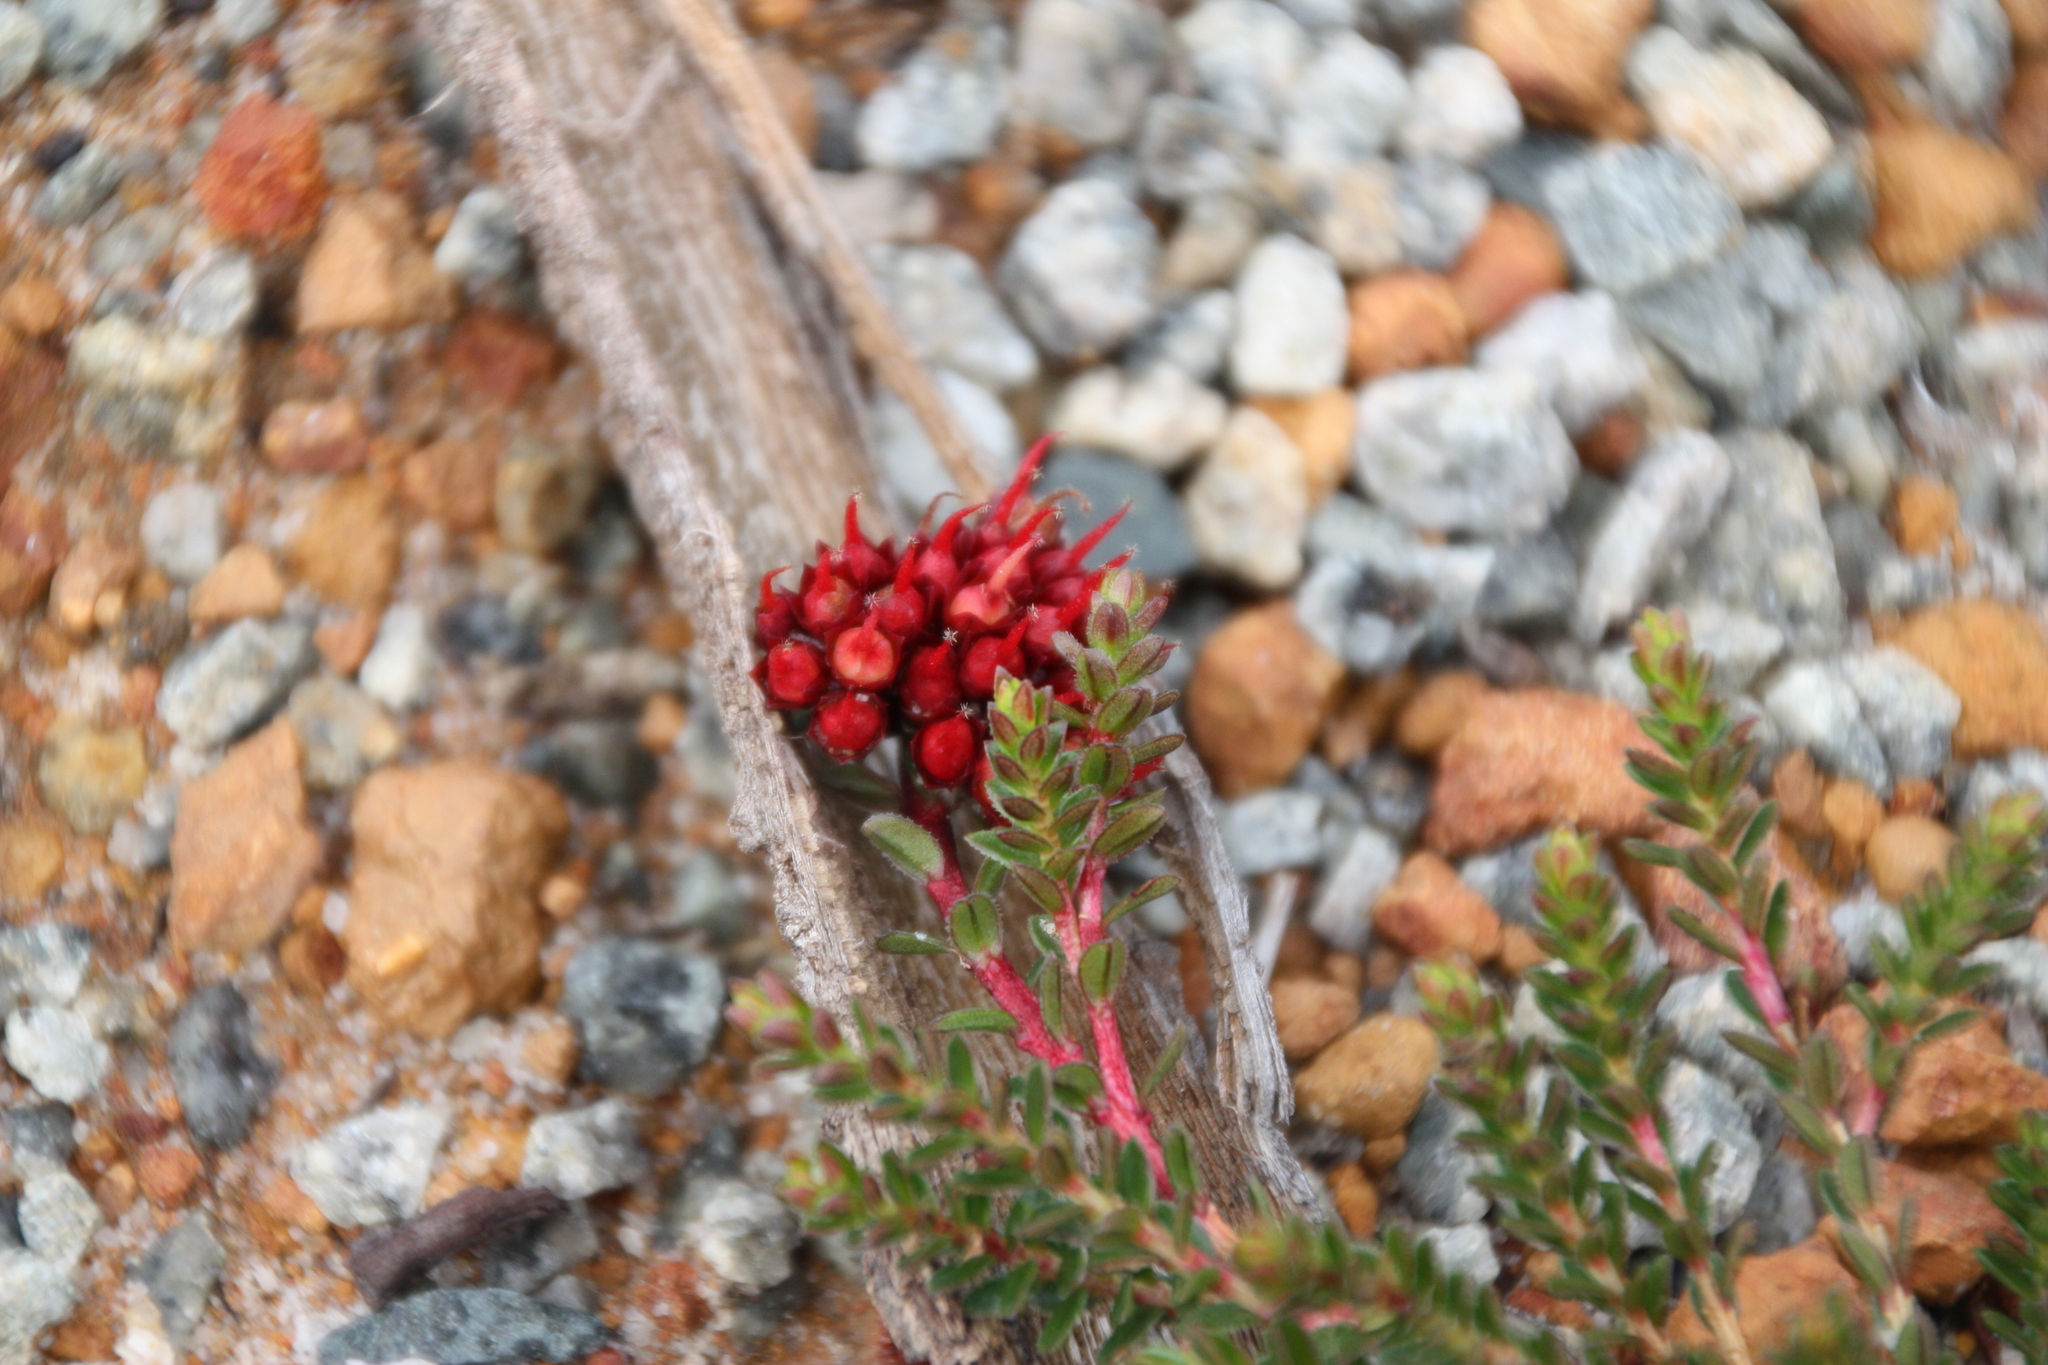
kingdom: Plantae
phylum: Tracheophyta
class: Magnoliopsida
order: Myrtales
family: Myrtaceae
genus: Darwinia
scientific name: Darwinia sanguinea
